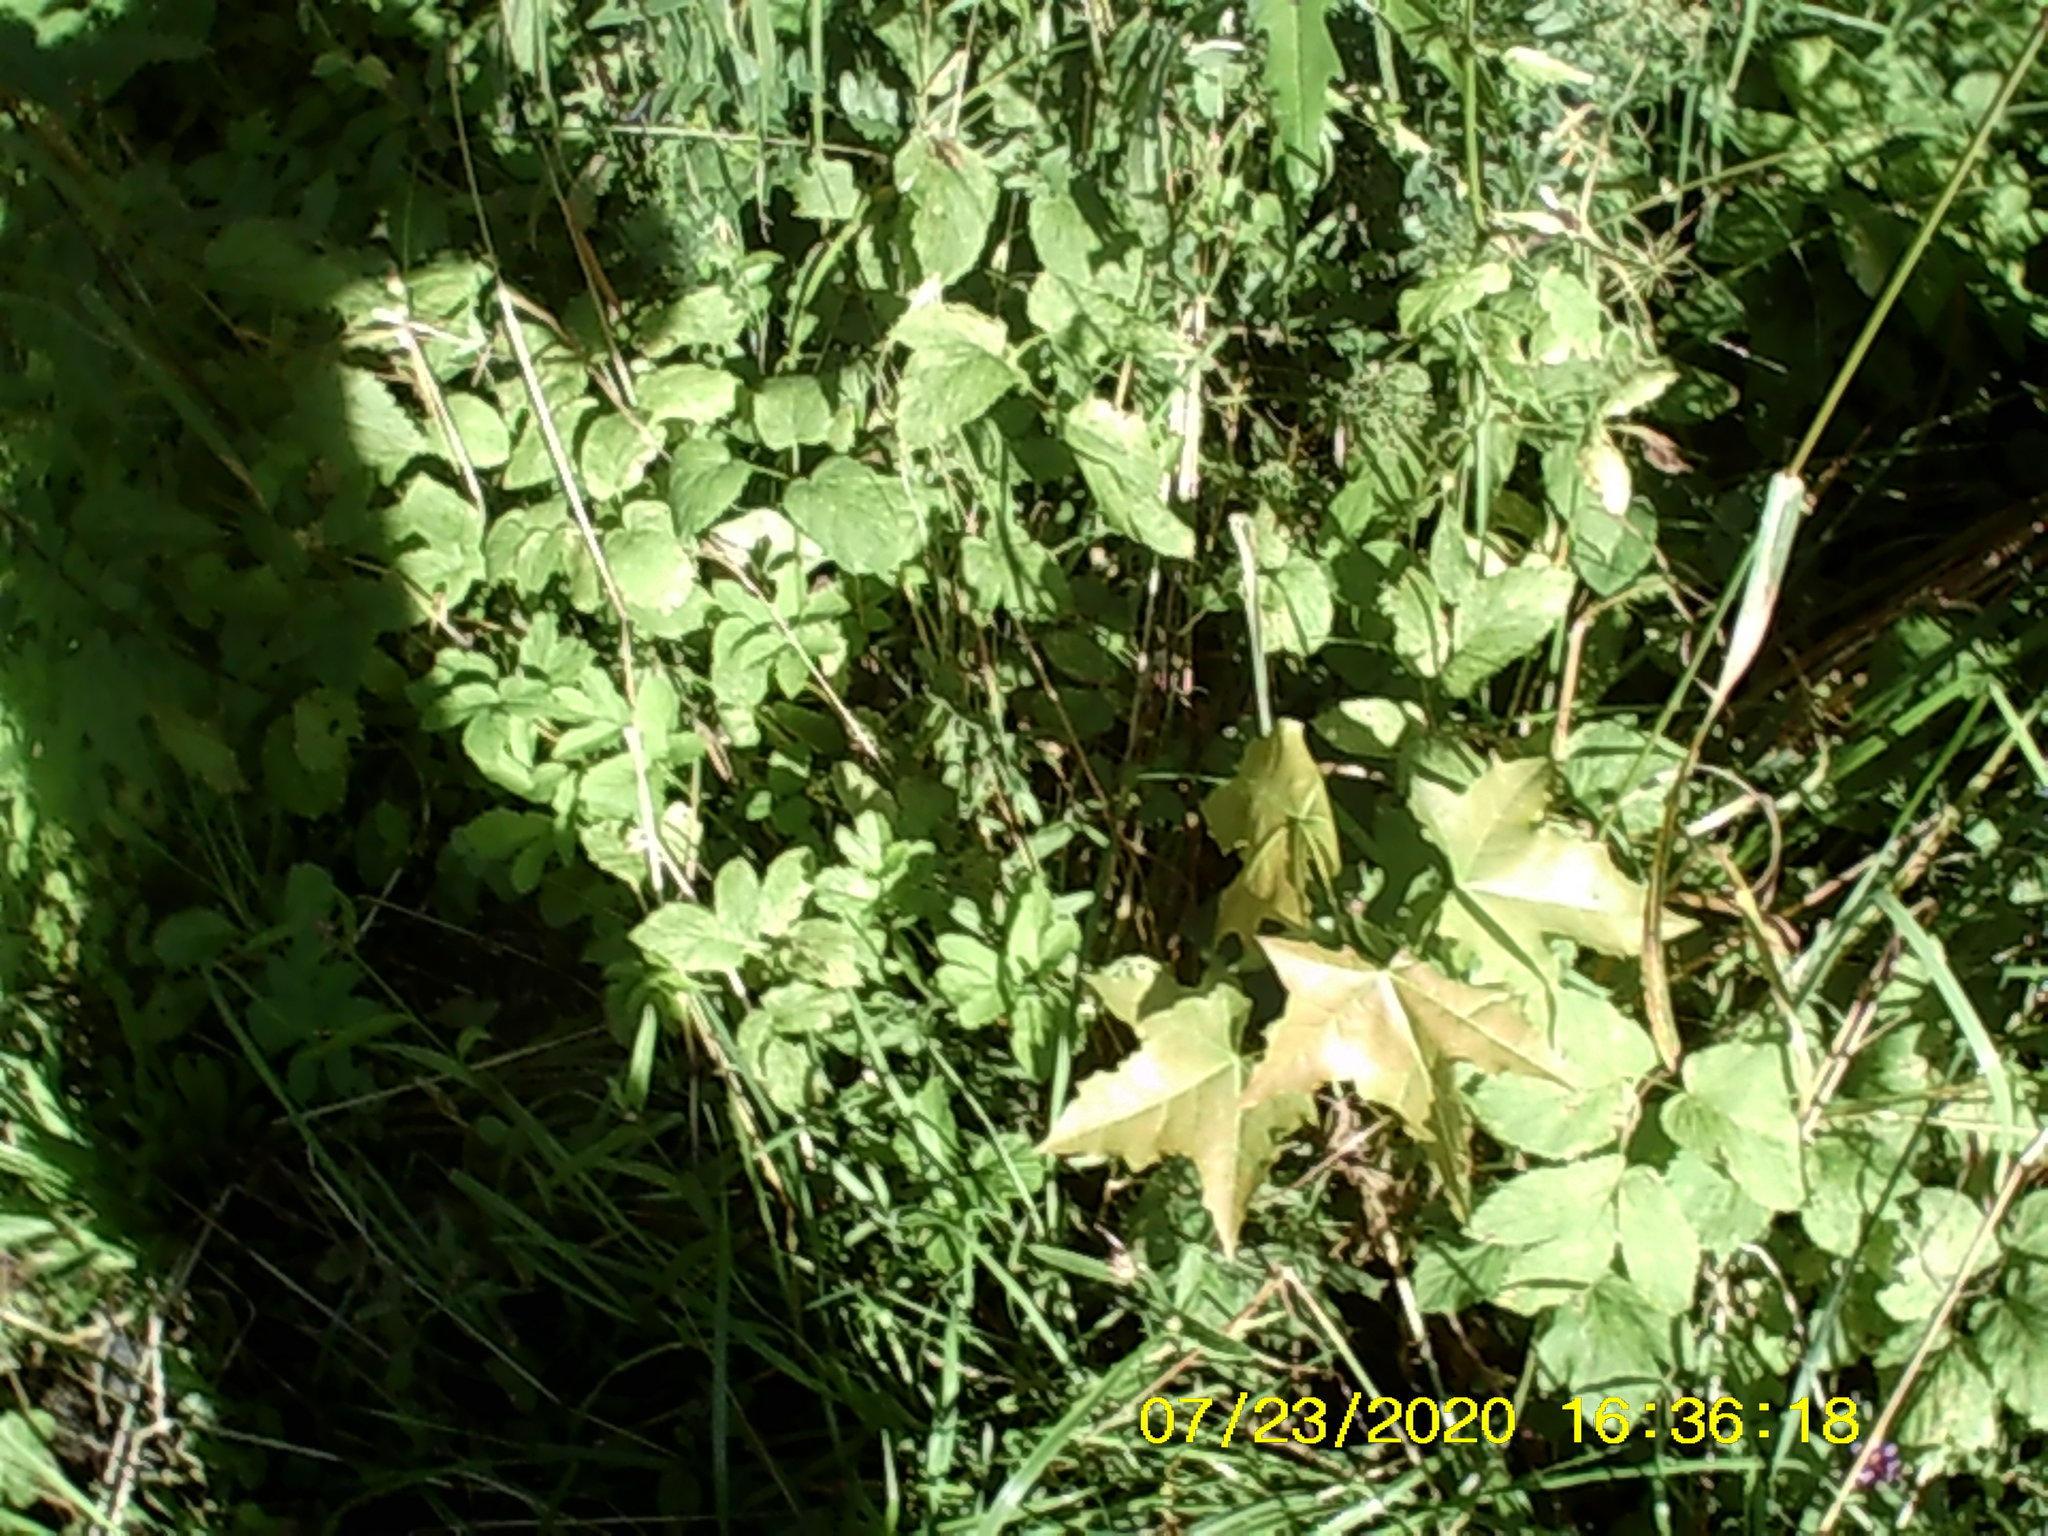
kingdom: Plantae
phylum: Tracheophyta
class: Magnoliopsida
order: Sapindales
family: Sapindaceae
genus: Acer
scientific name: Acer platanoides
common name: Norway maple
